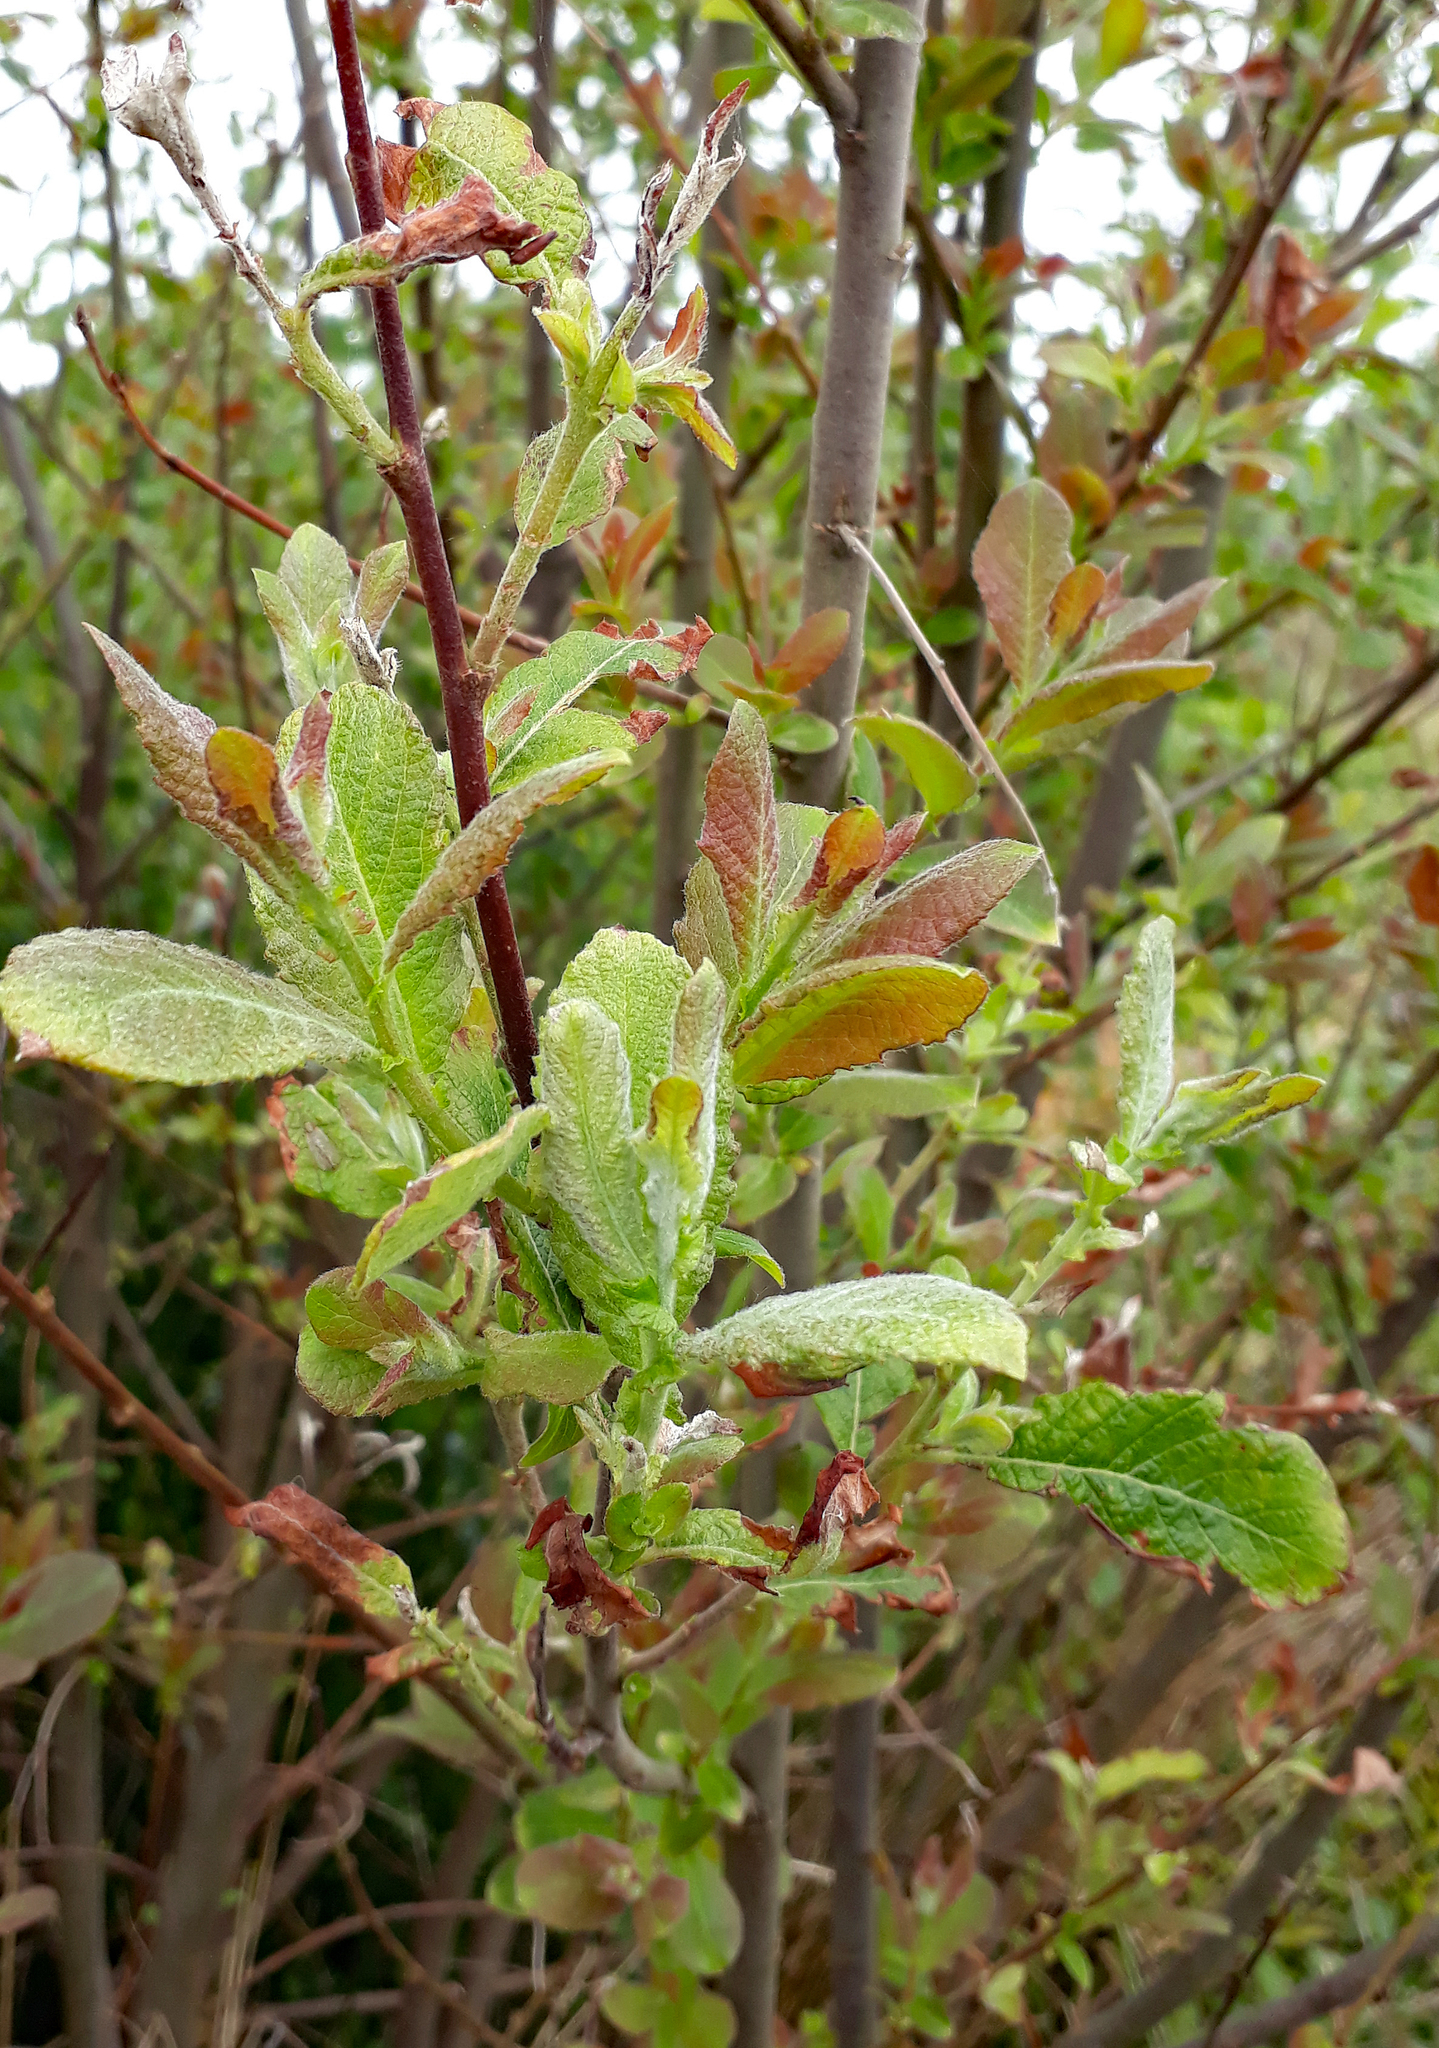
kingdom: Plantae
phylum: Tracheophyta
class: Magnoliopsida
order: Malpighiales
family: Salicaceae
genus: Salix
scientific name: Salix cinerea
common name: Common sallow
